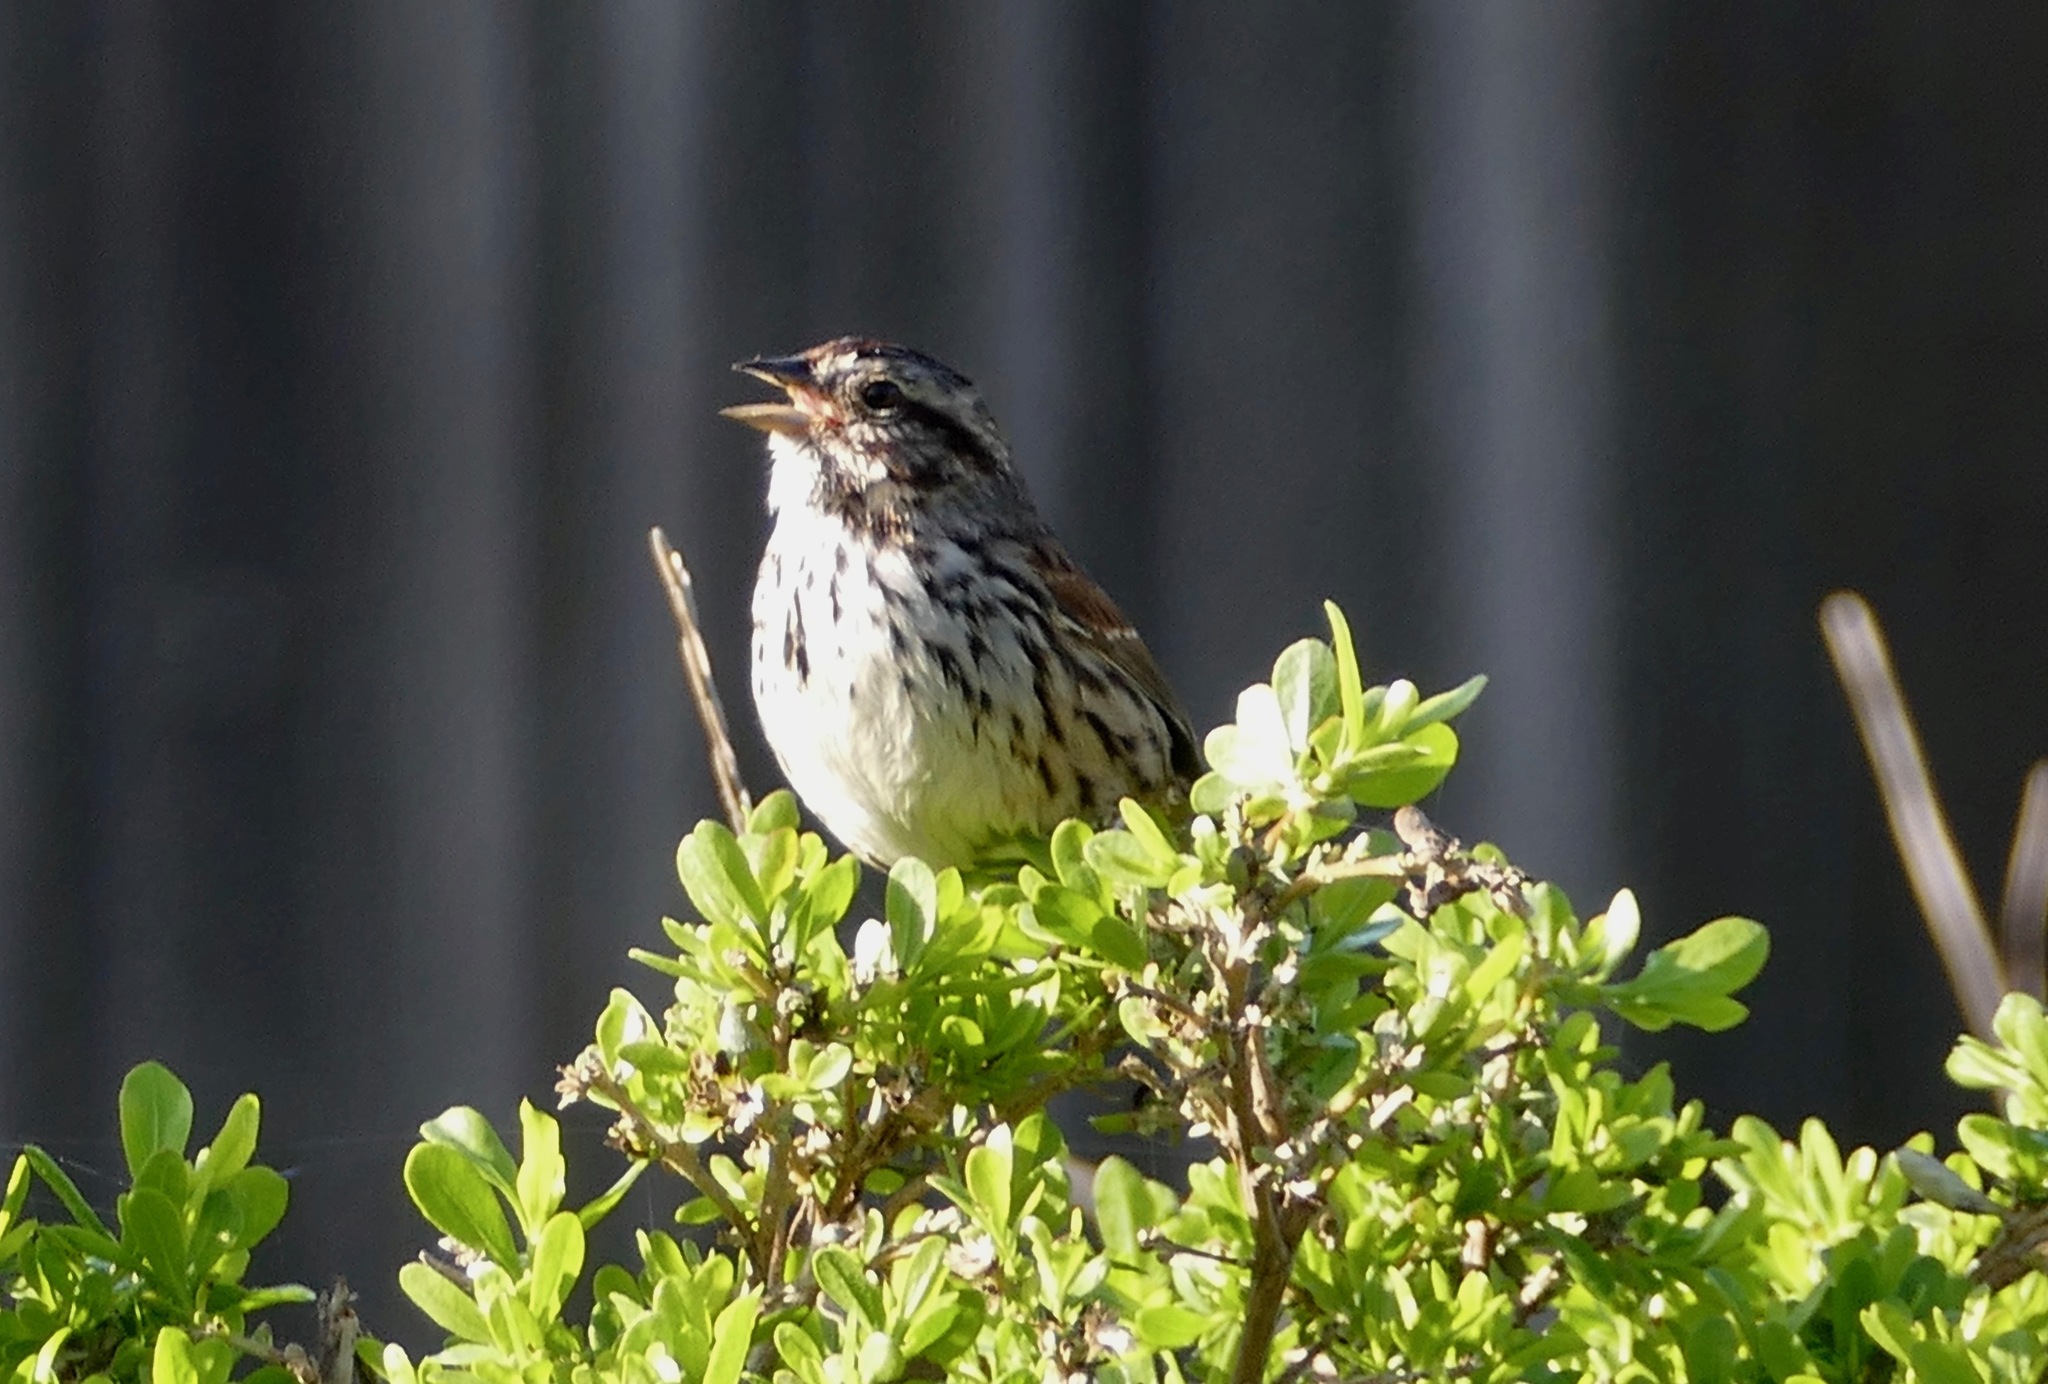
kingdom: Animalia
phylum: Chordata
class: Aves
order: Passeriformes
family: Passerellidae
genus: Melospiza
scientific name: Melospiza melodia
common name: Song sparrow
